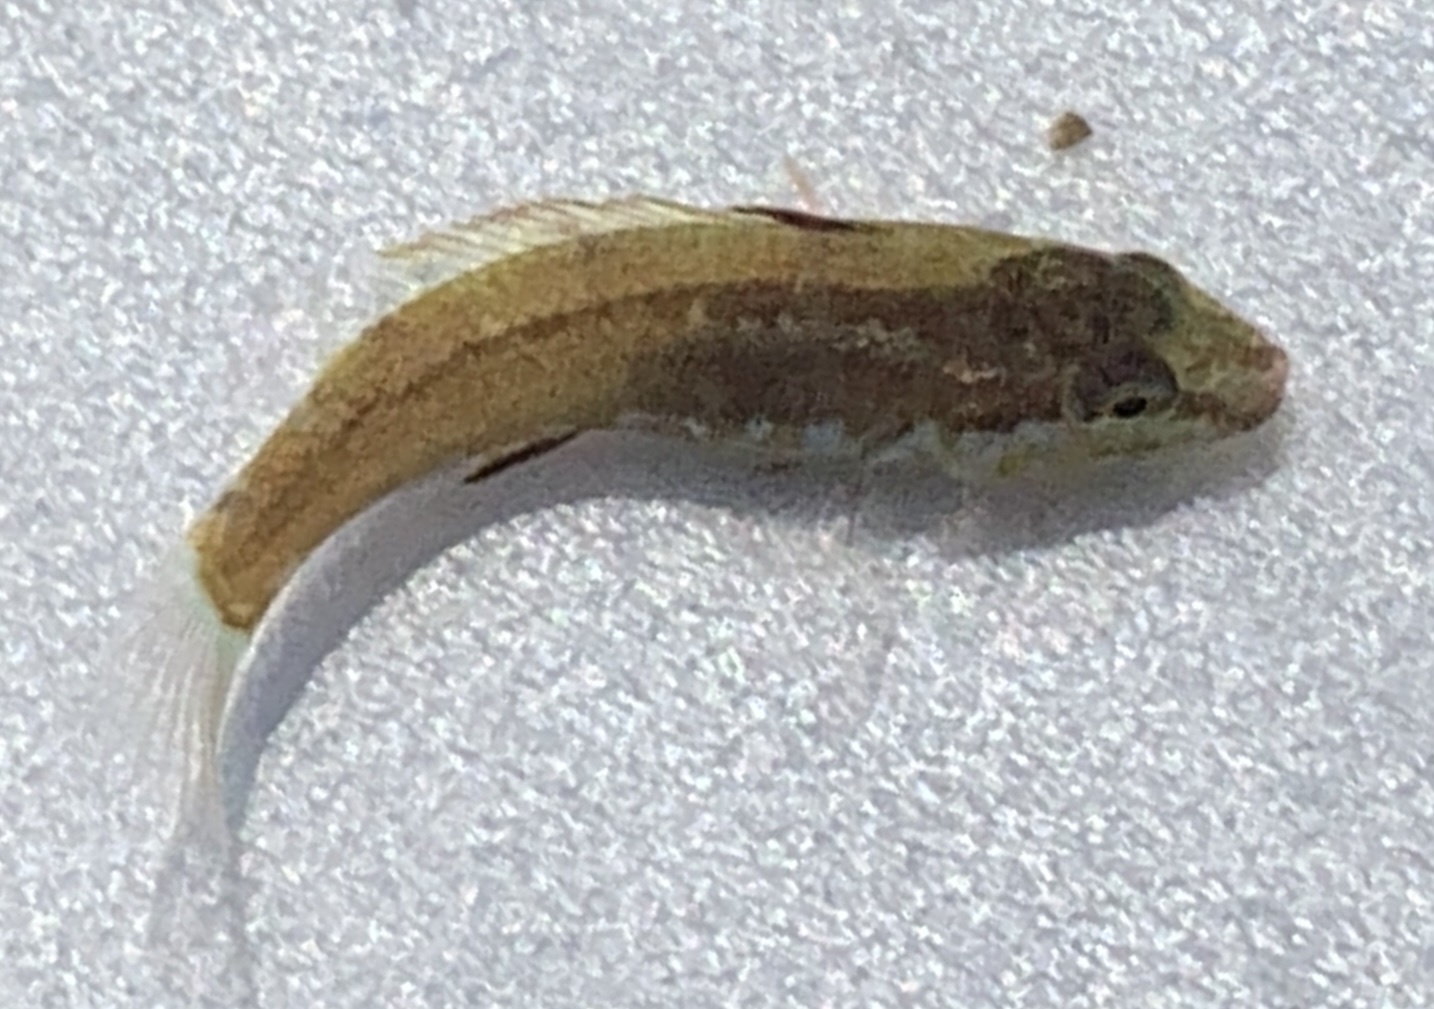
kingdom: Animalia
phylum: Chordata
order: Perciformes
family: Labridae
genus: Tautogolabrus
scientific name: Tautogolabrus adspersus
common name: Cunner
